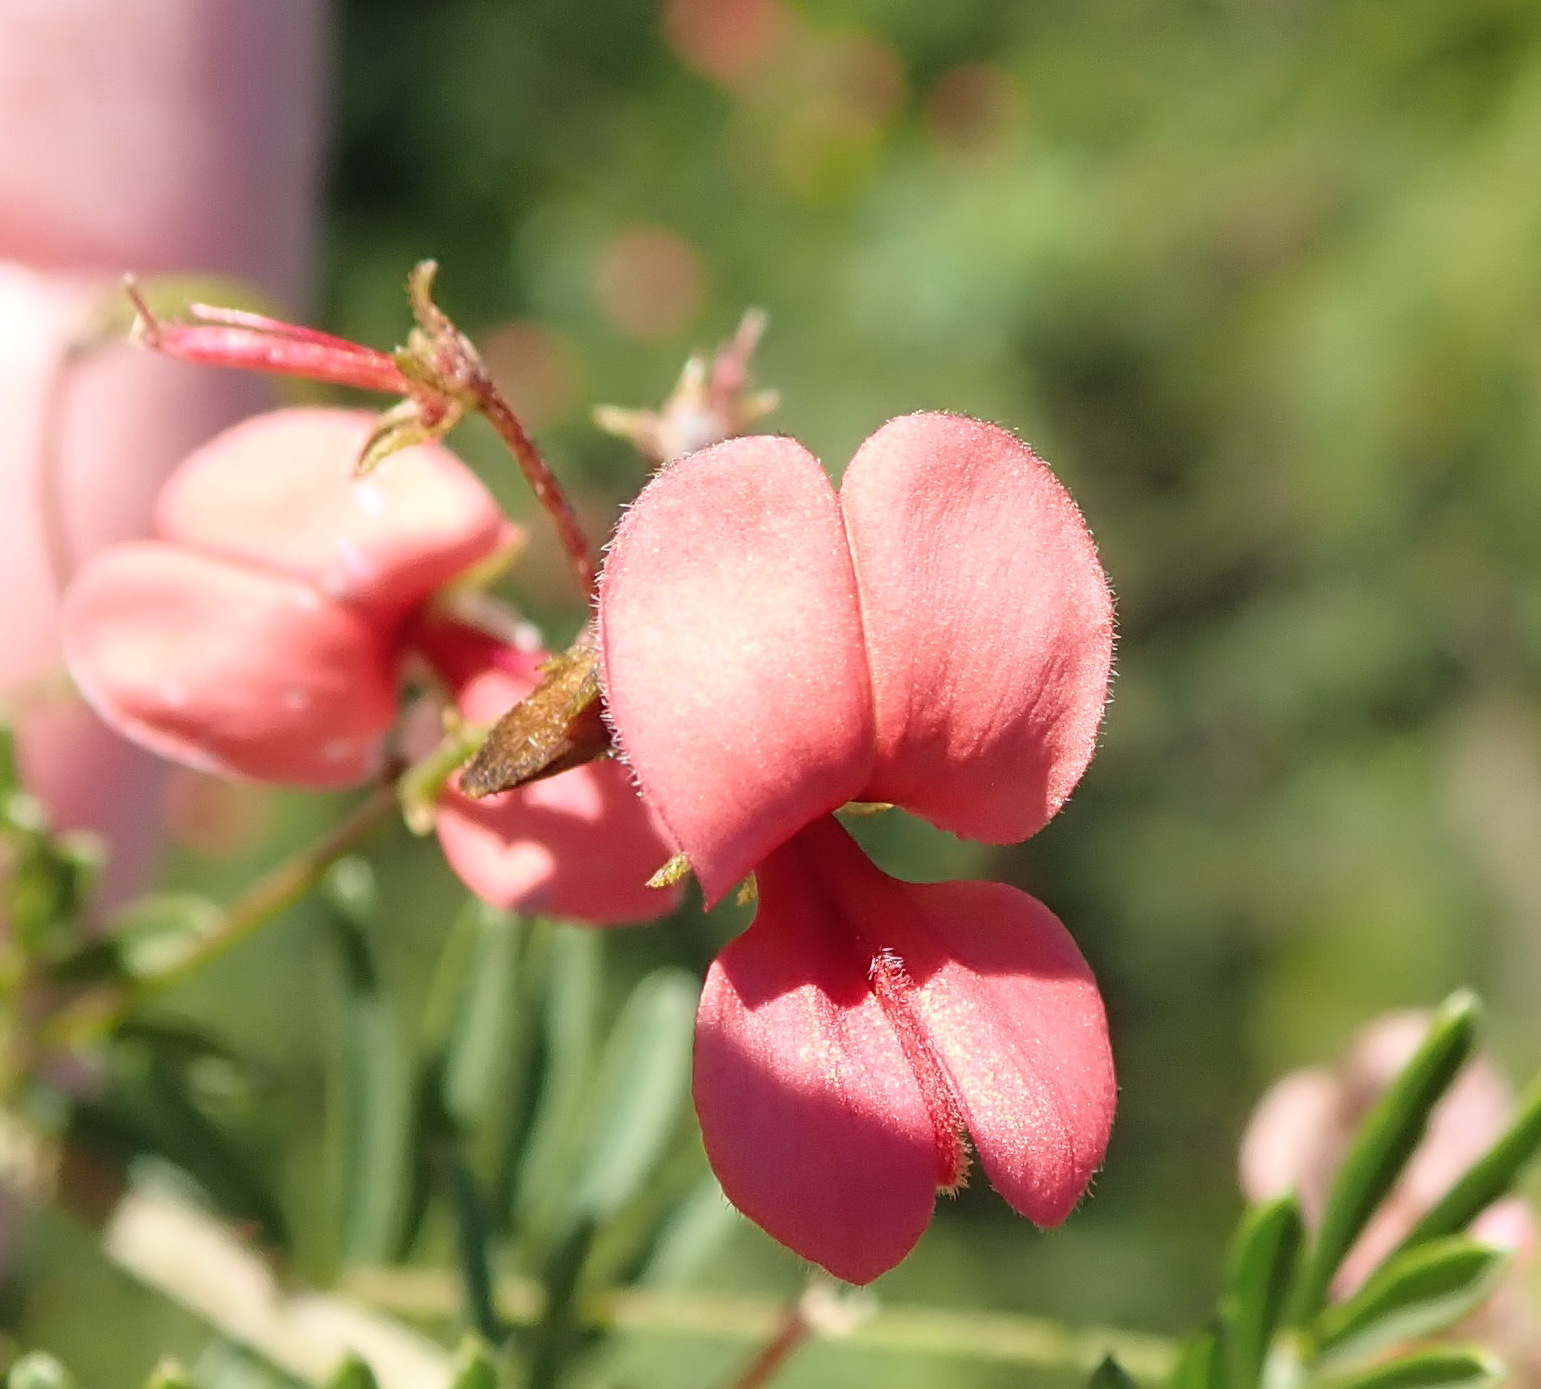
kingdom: Plantae
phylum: Tracheophyta
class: Magnoliopsida
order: Fabales
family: Fabaceae
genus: Indigofera
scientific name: Indigofera verrucosa
